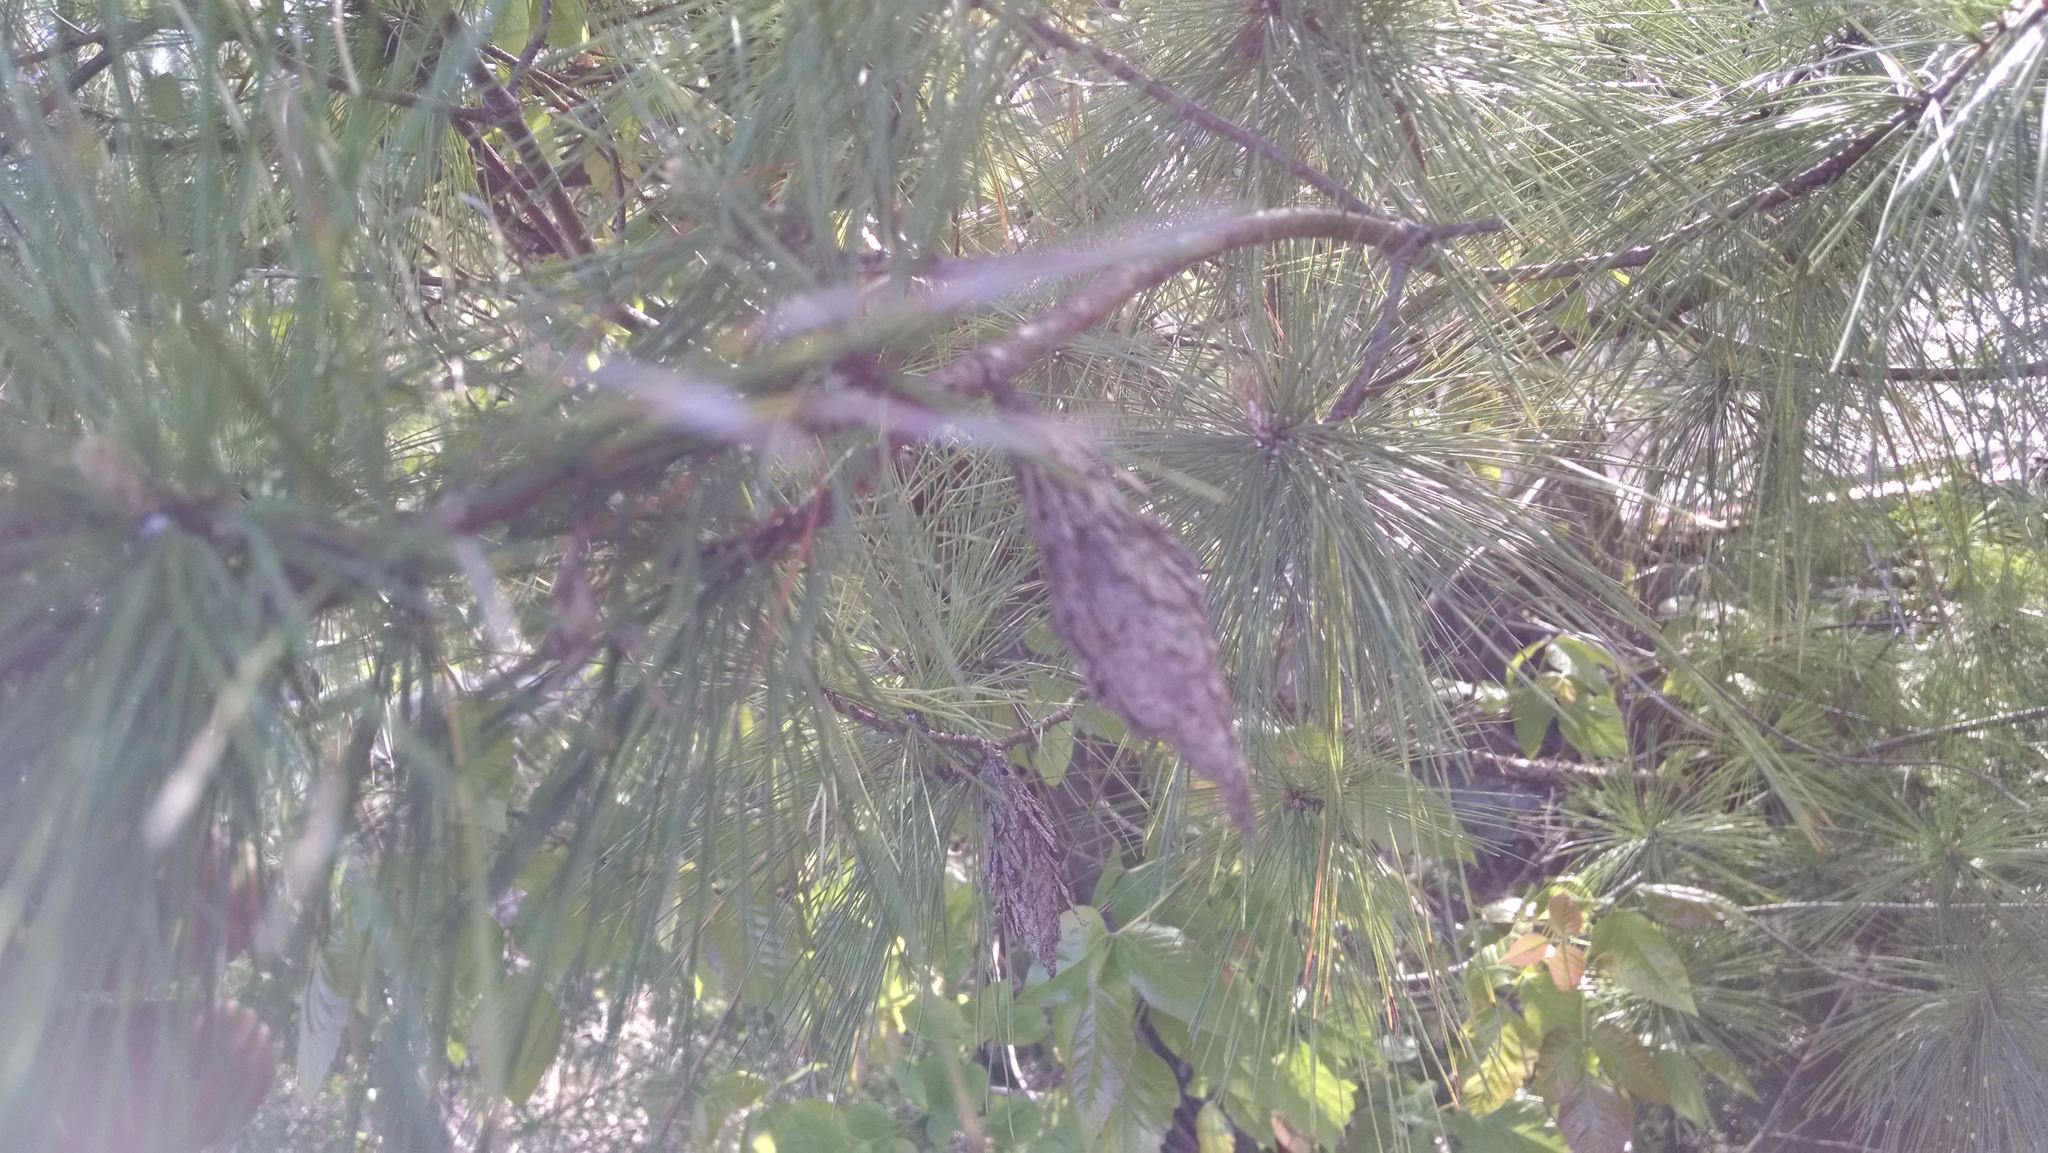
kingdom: Animalia
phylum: Arthropoda
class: Insecta
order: Lepidoptera
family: Psychidae
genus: Thyridopteryx
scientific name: Thyridopteryx ephemeraeformis
